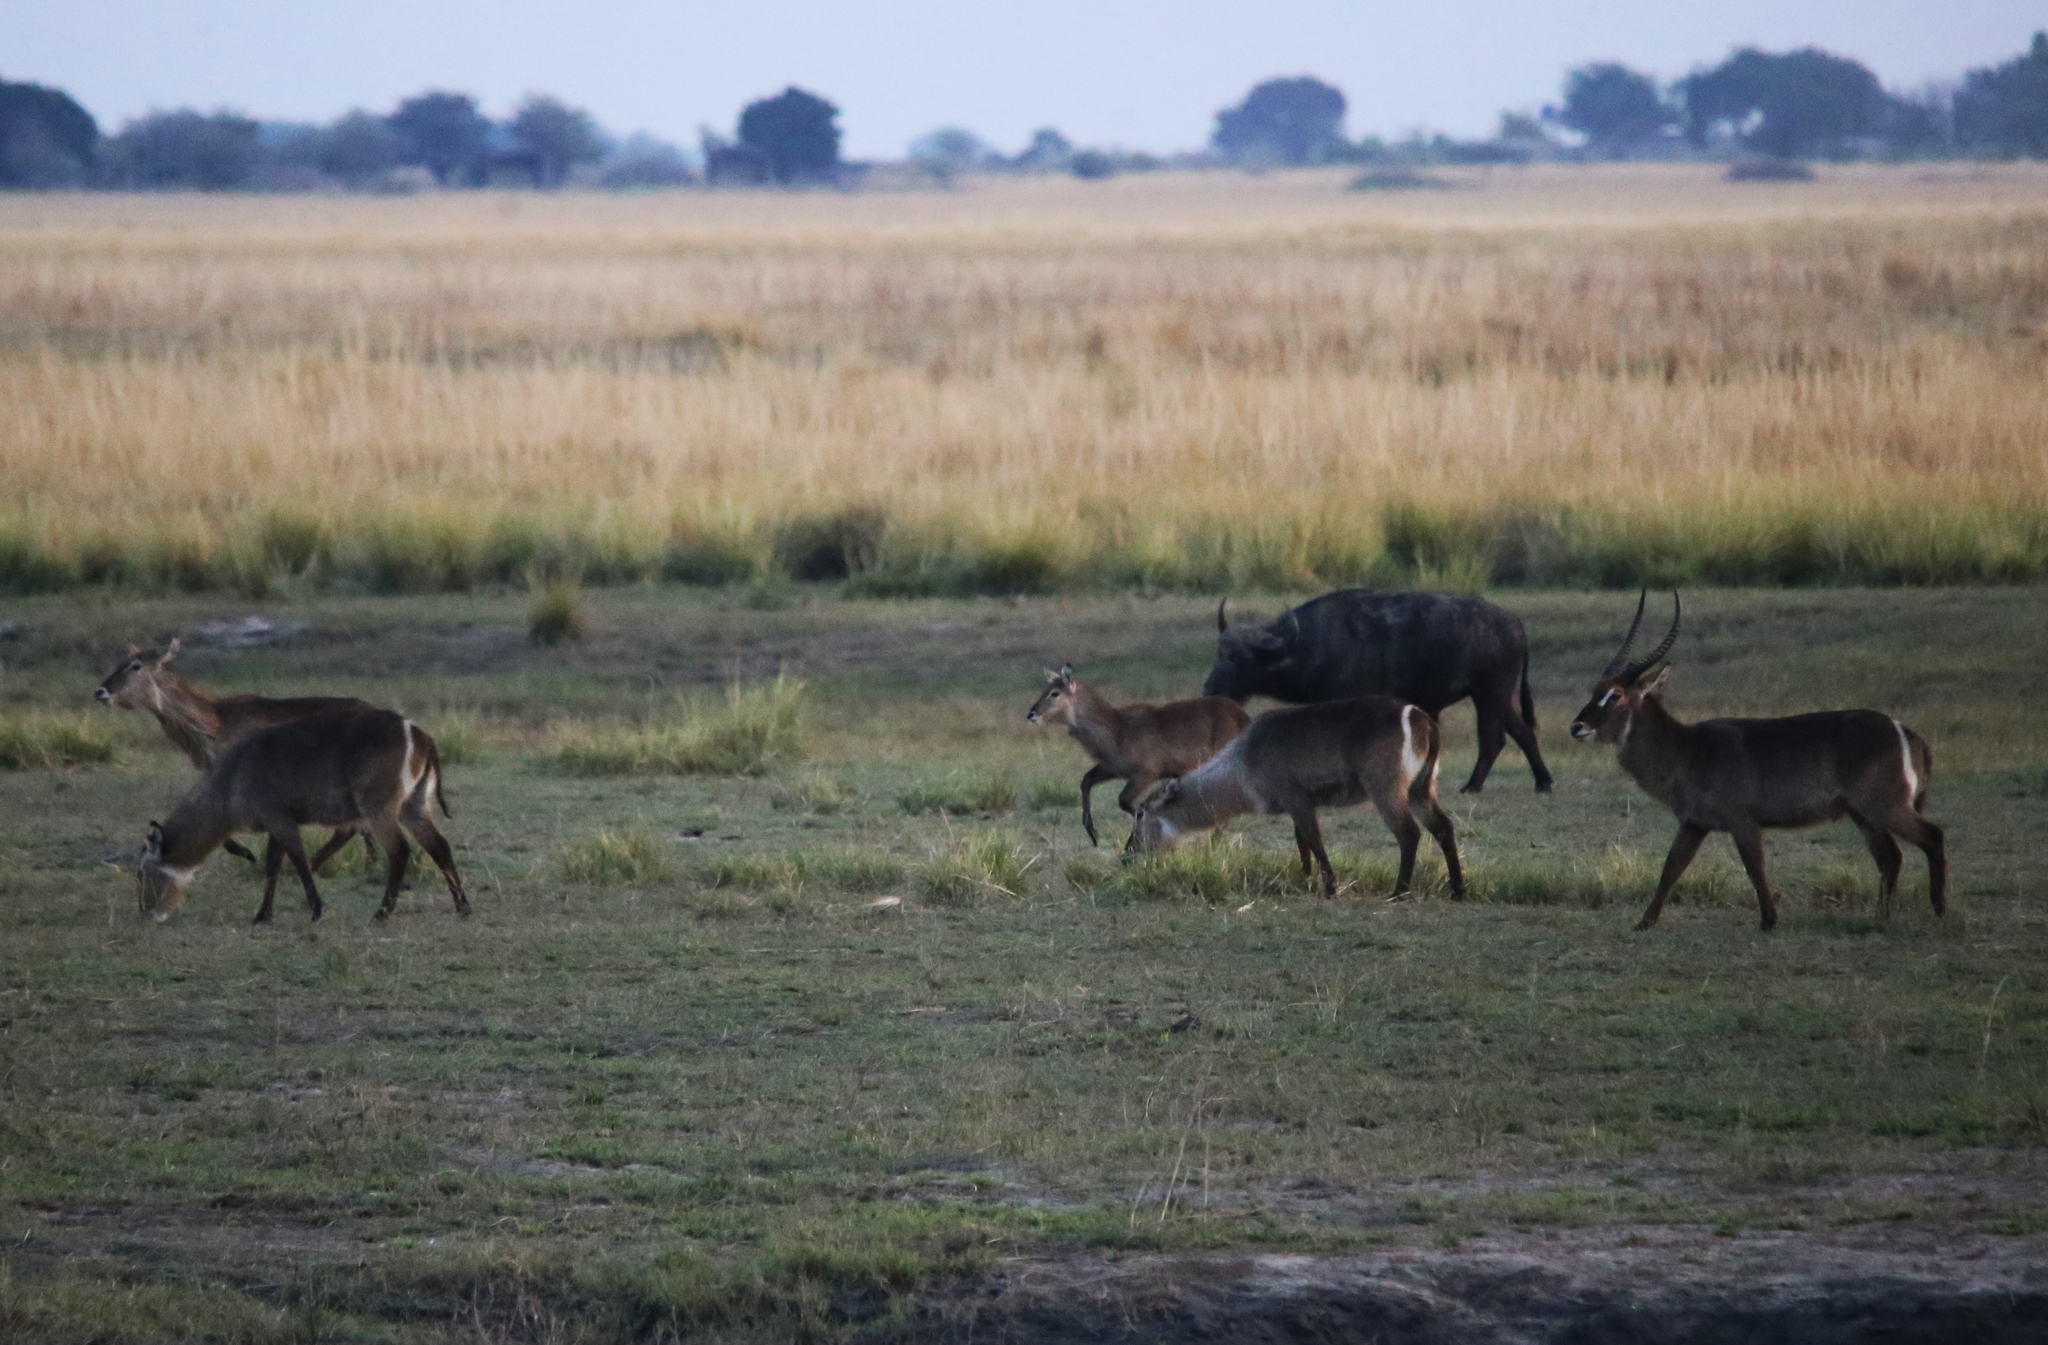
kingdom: Animalia
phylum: Chordata
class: Mammalia
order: Artiodactyla
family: Bovidae
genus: Kobus
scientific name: Kobus ellipsiprymnus
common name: Waterbuck
